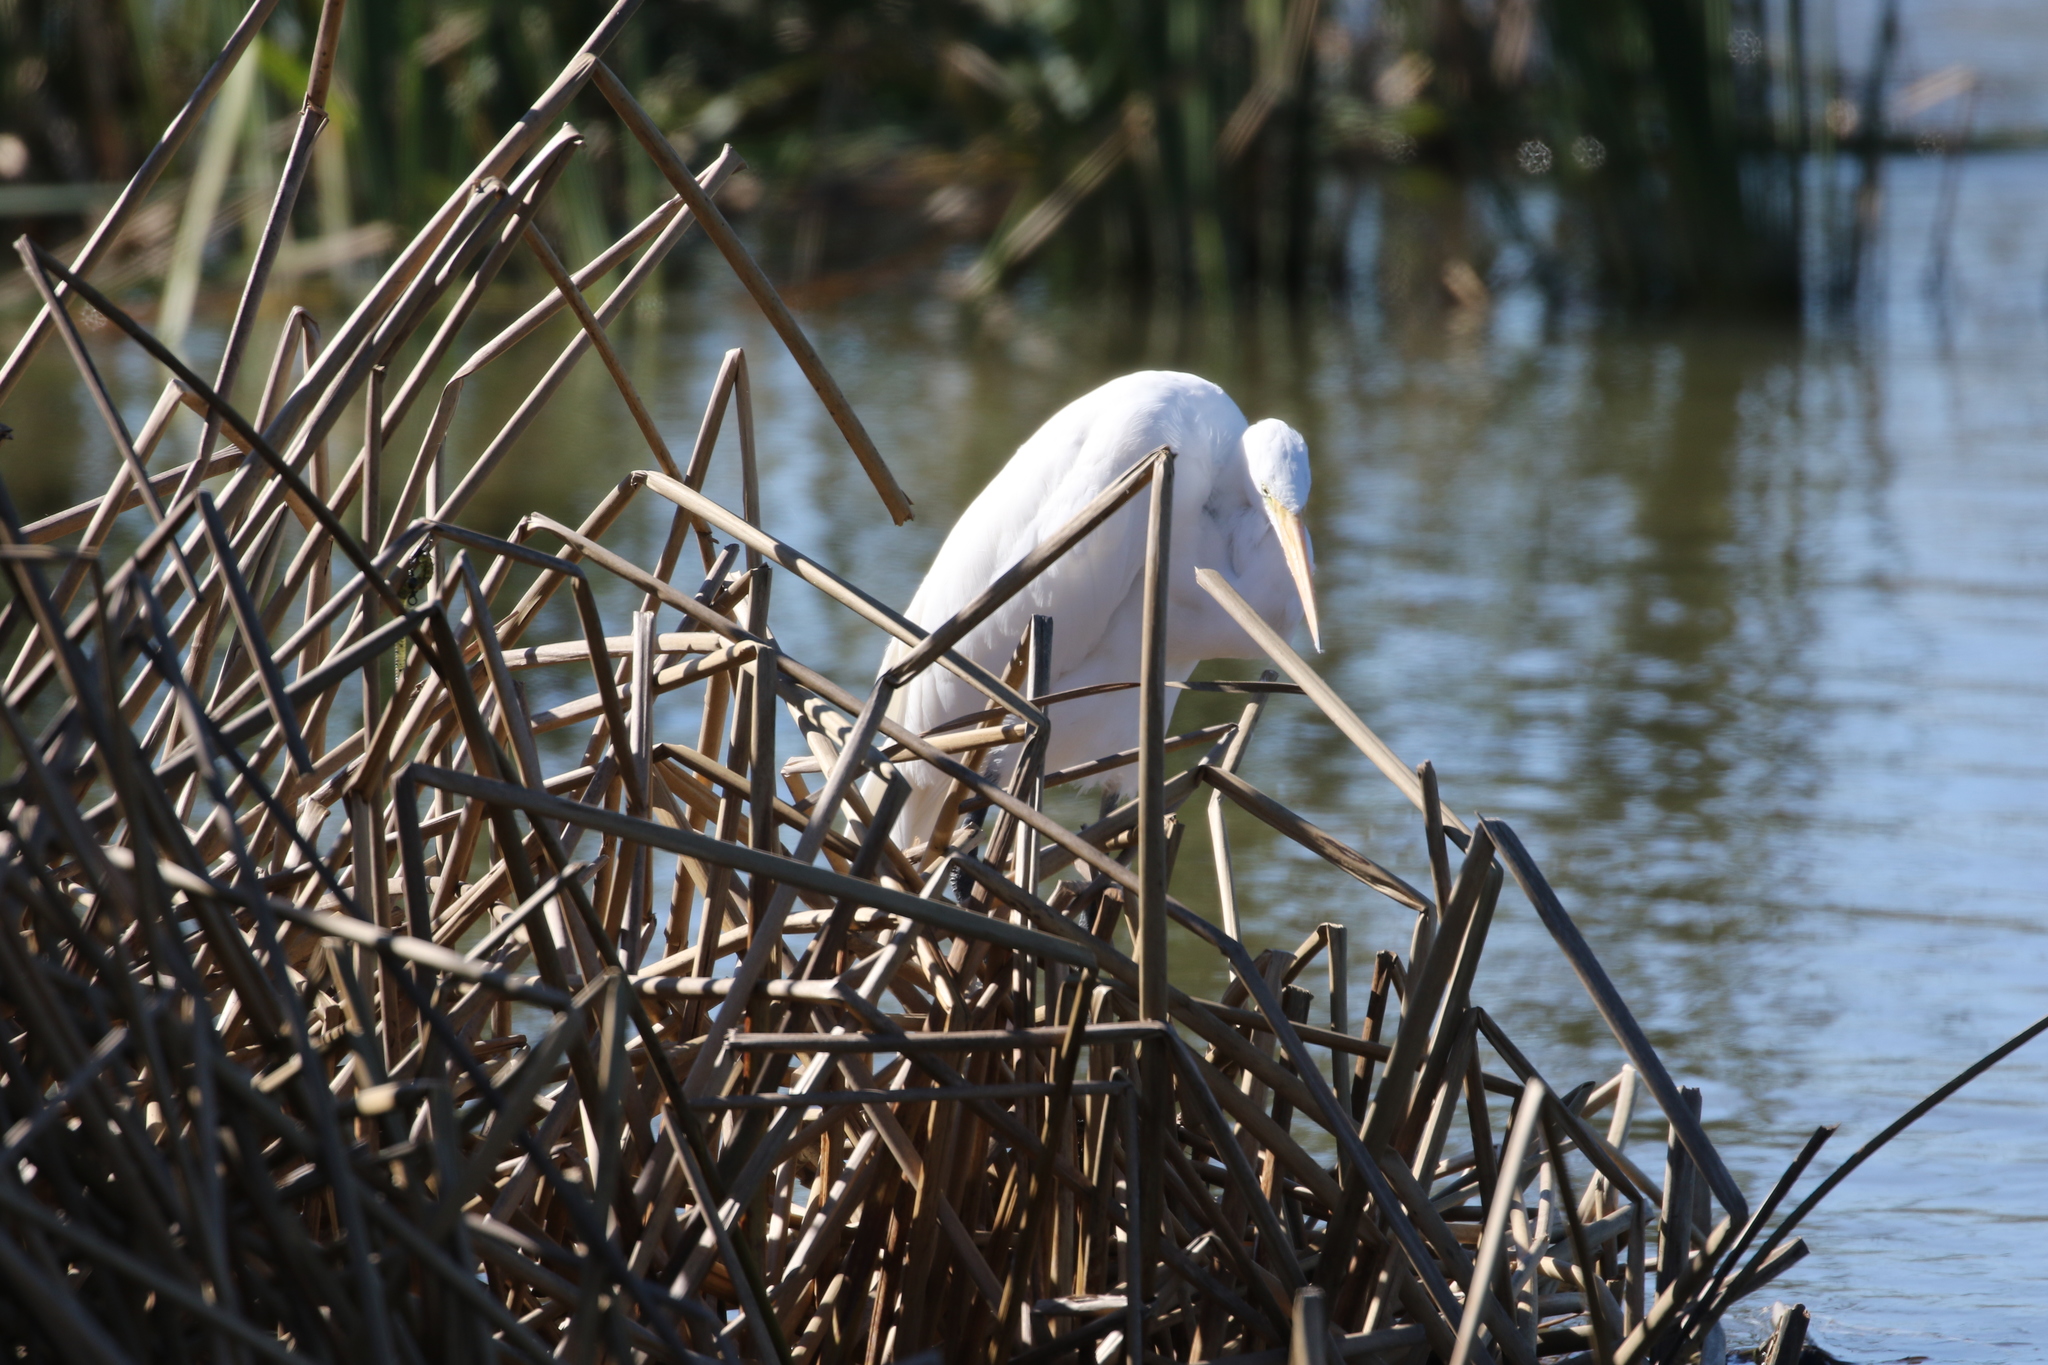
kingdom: Animalia
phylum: Chordata
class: Aves
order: Pelecaniformes
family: Ardeidae
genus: Ardea
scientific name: Ardea alba
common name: Great egret
